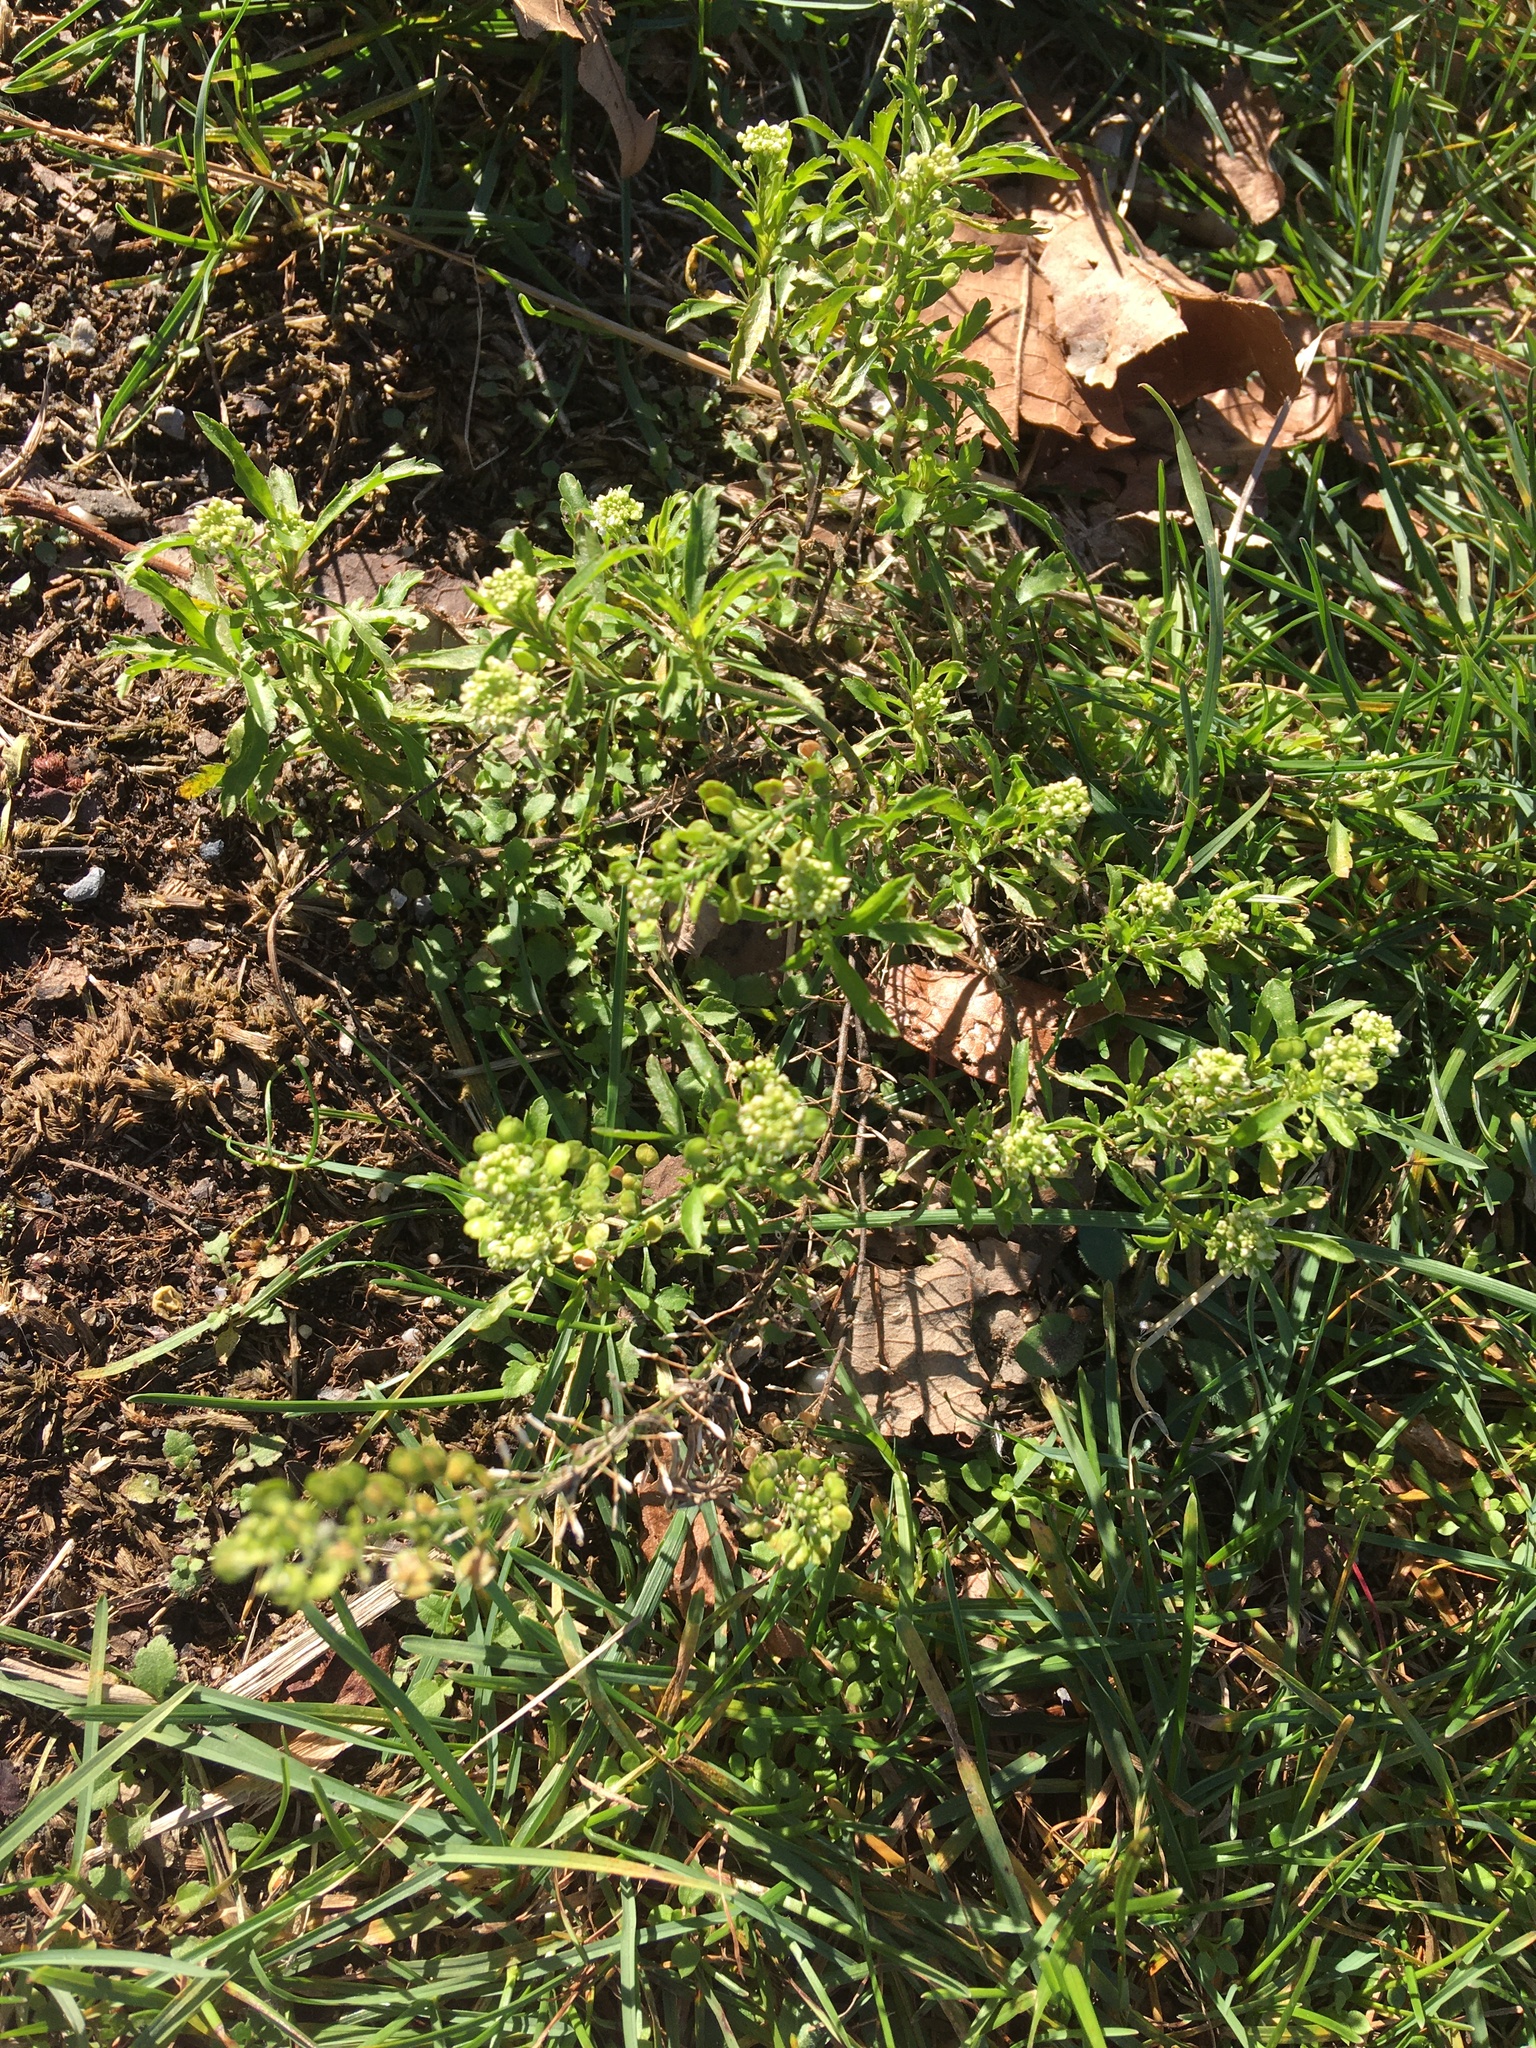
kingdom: Plantae
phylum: Tracheophyta
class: Magnoliopsida
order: Brassicales
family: Brassicaceae
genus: Lepidium
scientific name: Lepidium virginicum
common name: Least pepperwort
